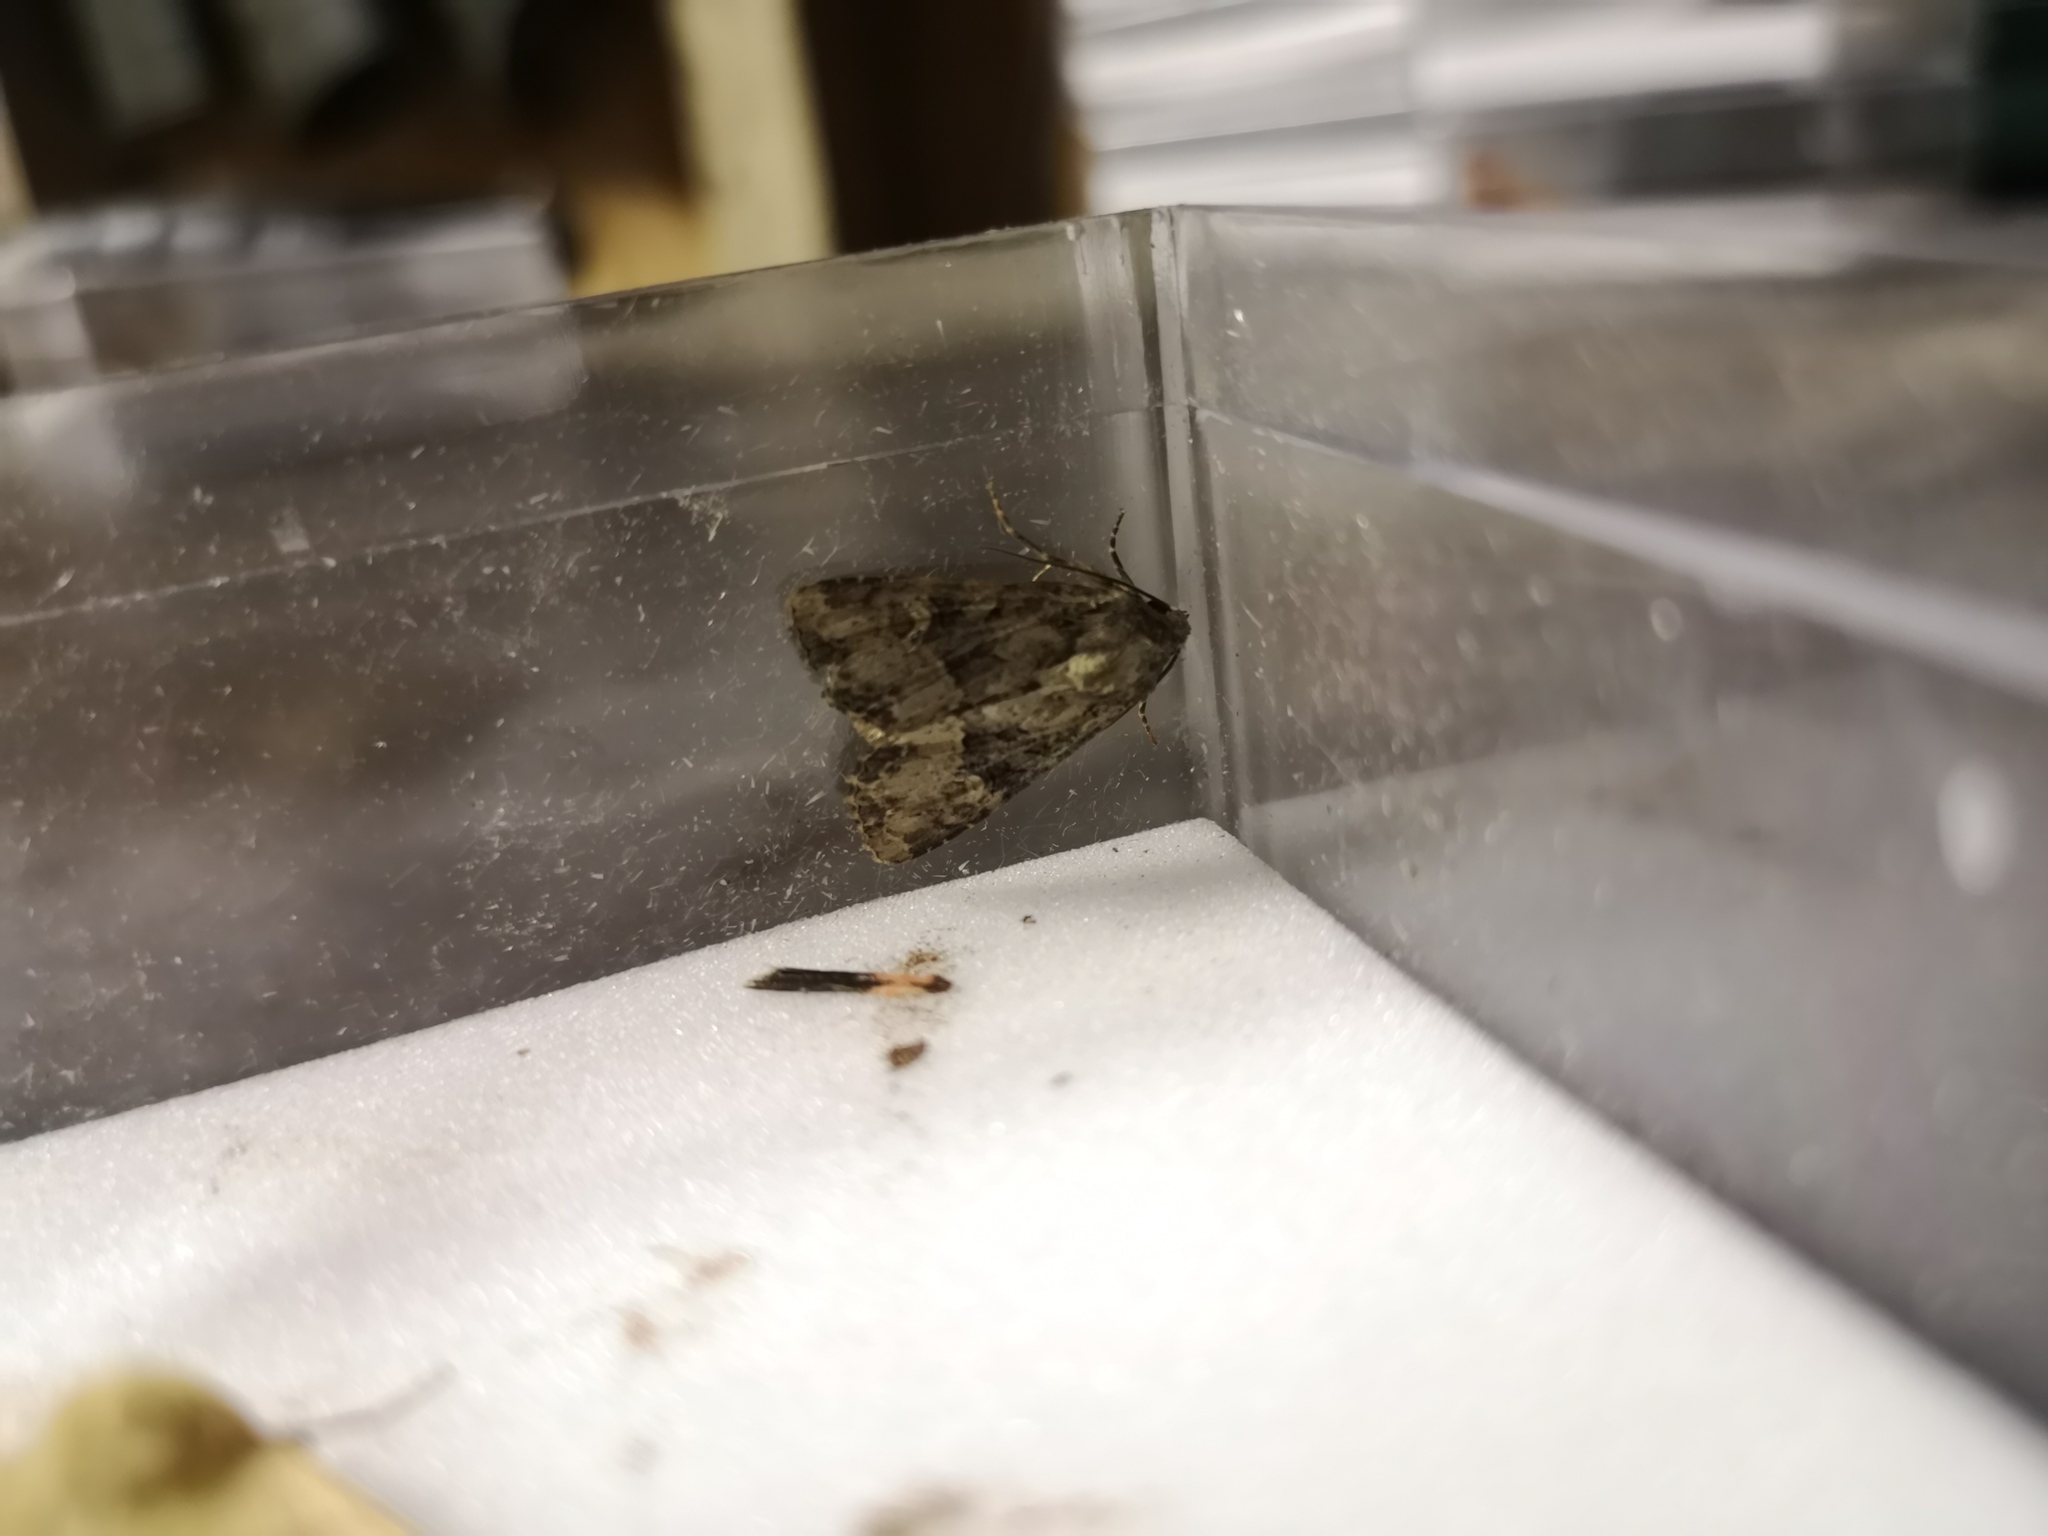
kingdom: Animalia
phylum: Arthropoda
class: Insecta
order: Lepidoptera
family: Noctuidae
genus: Mesapamea
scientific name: Mesapamea
